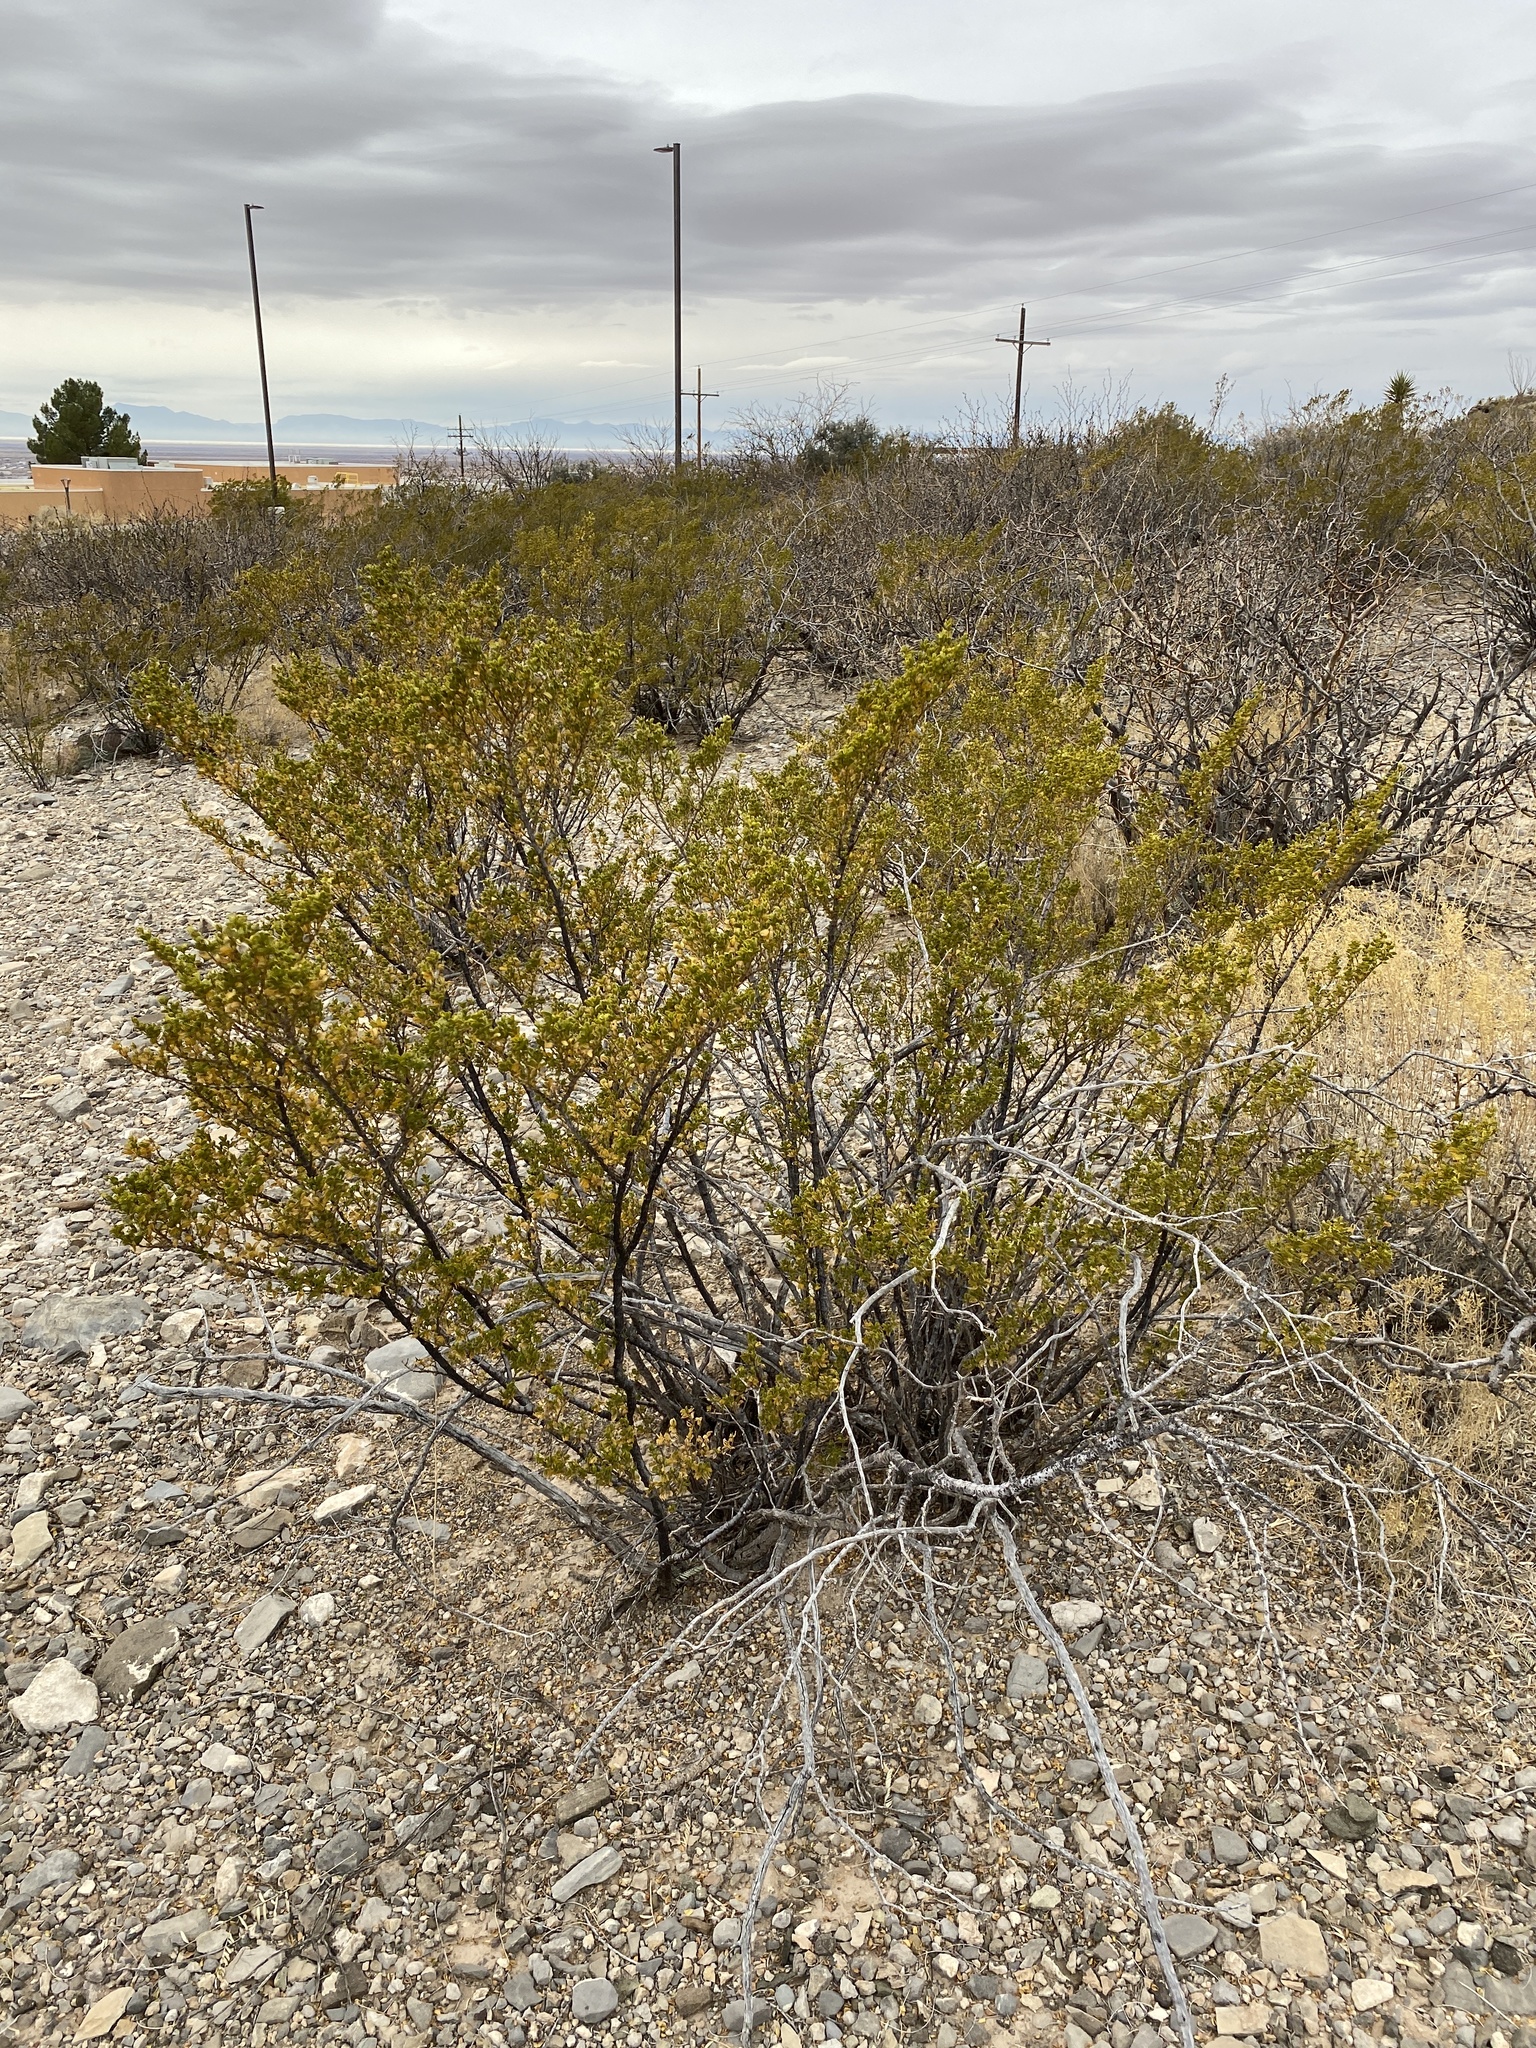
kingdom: Plantae
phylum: Tracheophyta
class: Magnoliopsida
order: Zygophyllales
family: Zygophyllaceae
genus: Larrea
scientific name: Larrea tridentata
